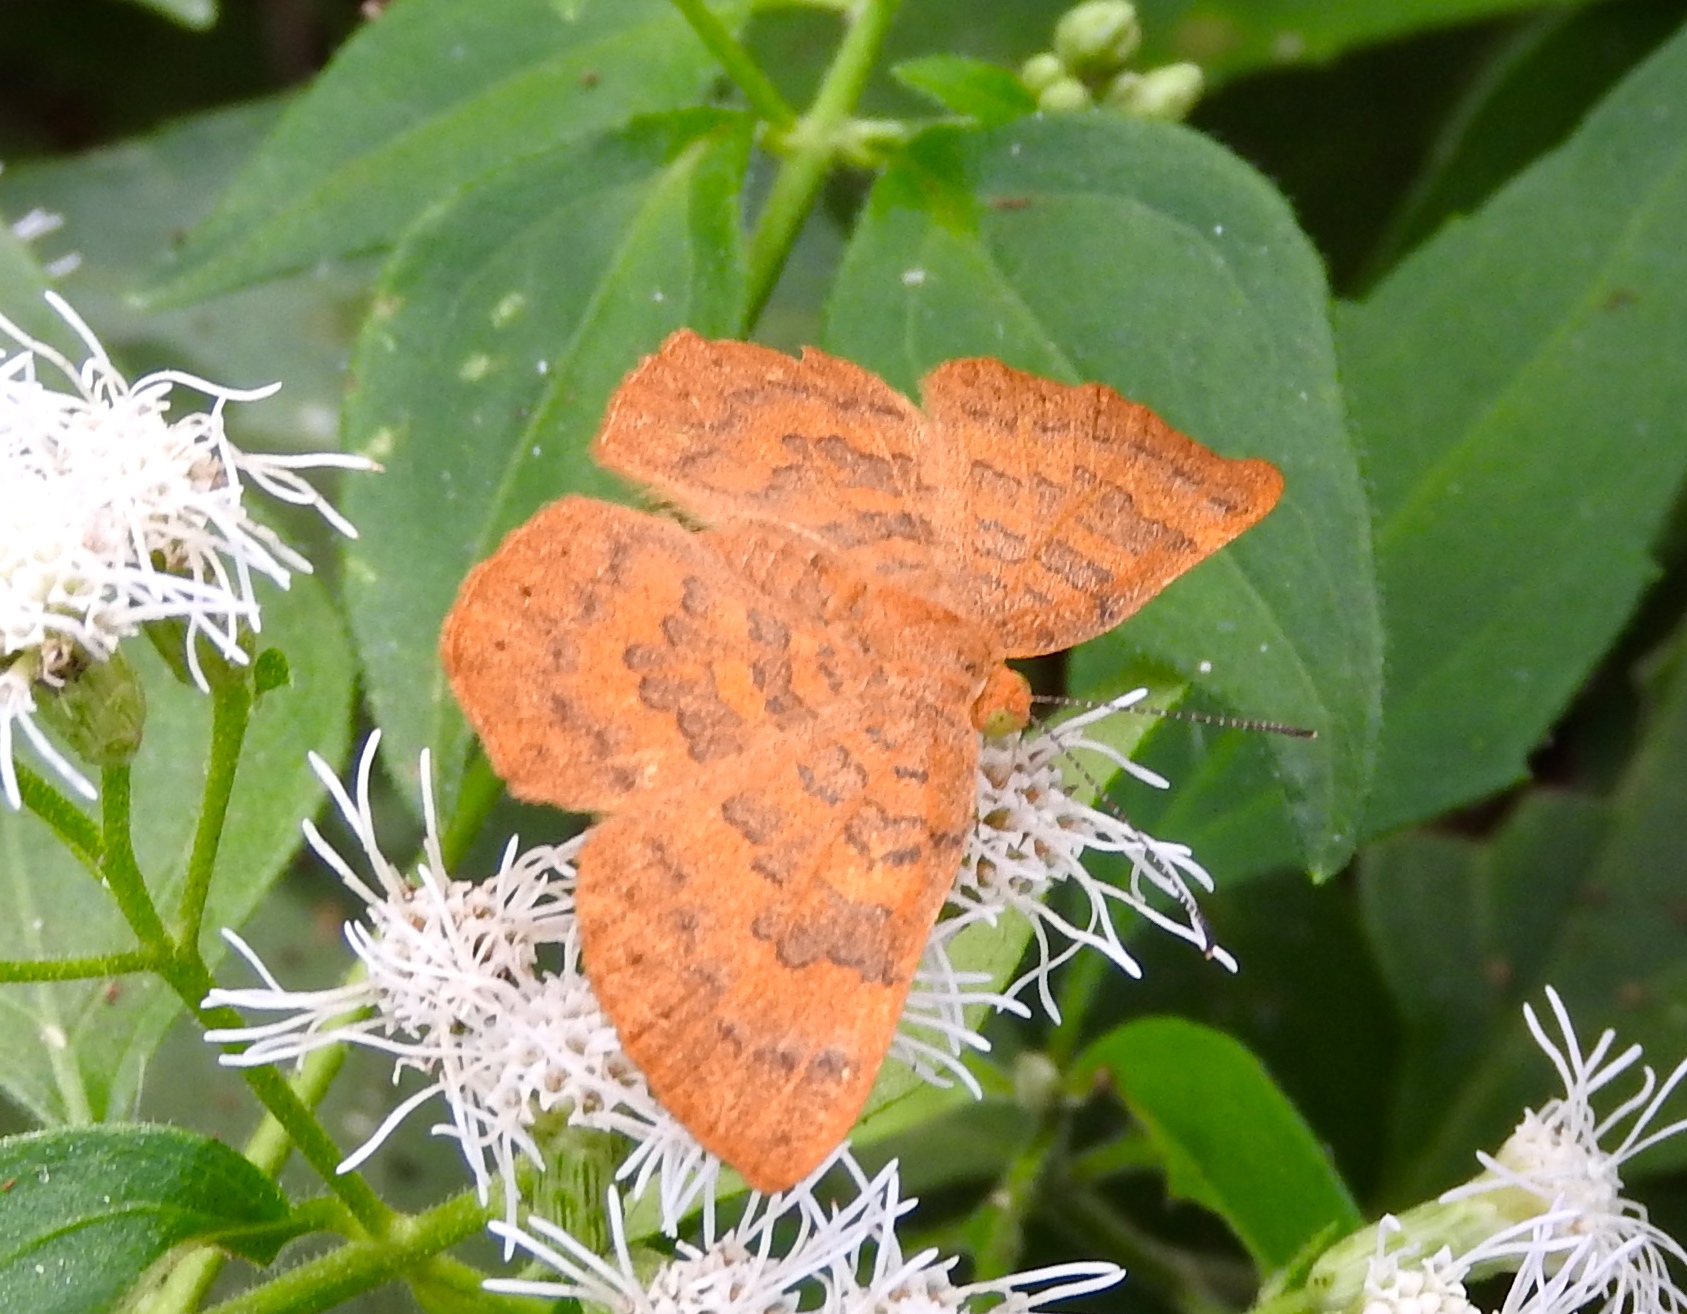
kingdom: Animalia
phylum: Arthropoda
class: Insecta
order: Lepidoptera
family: Lycaenidae
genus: Emesis
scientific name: Emesis
